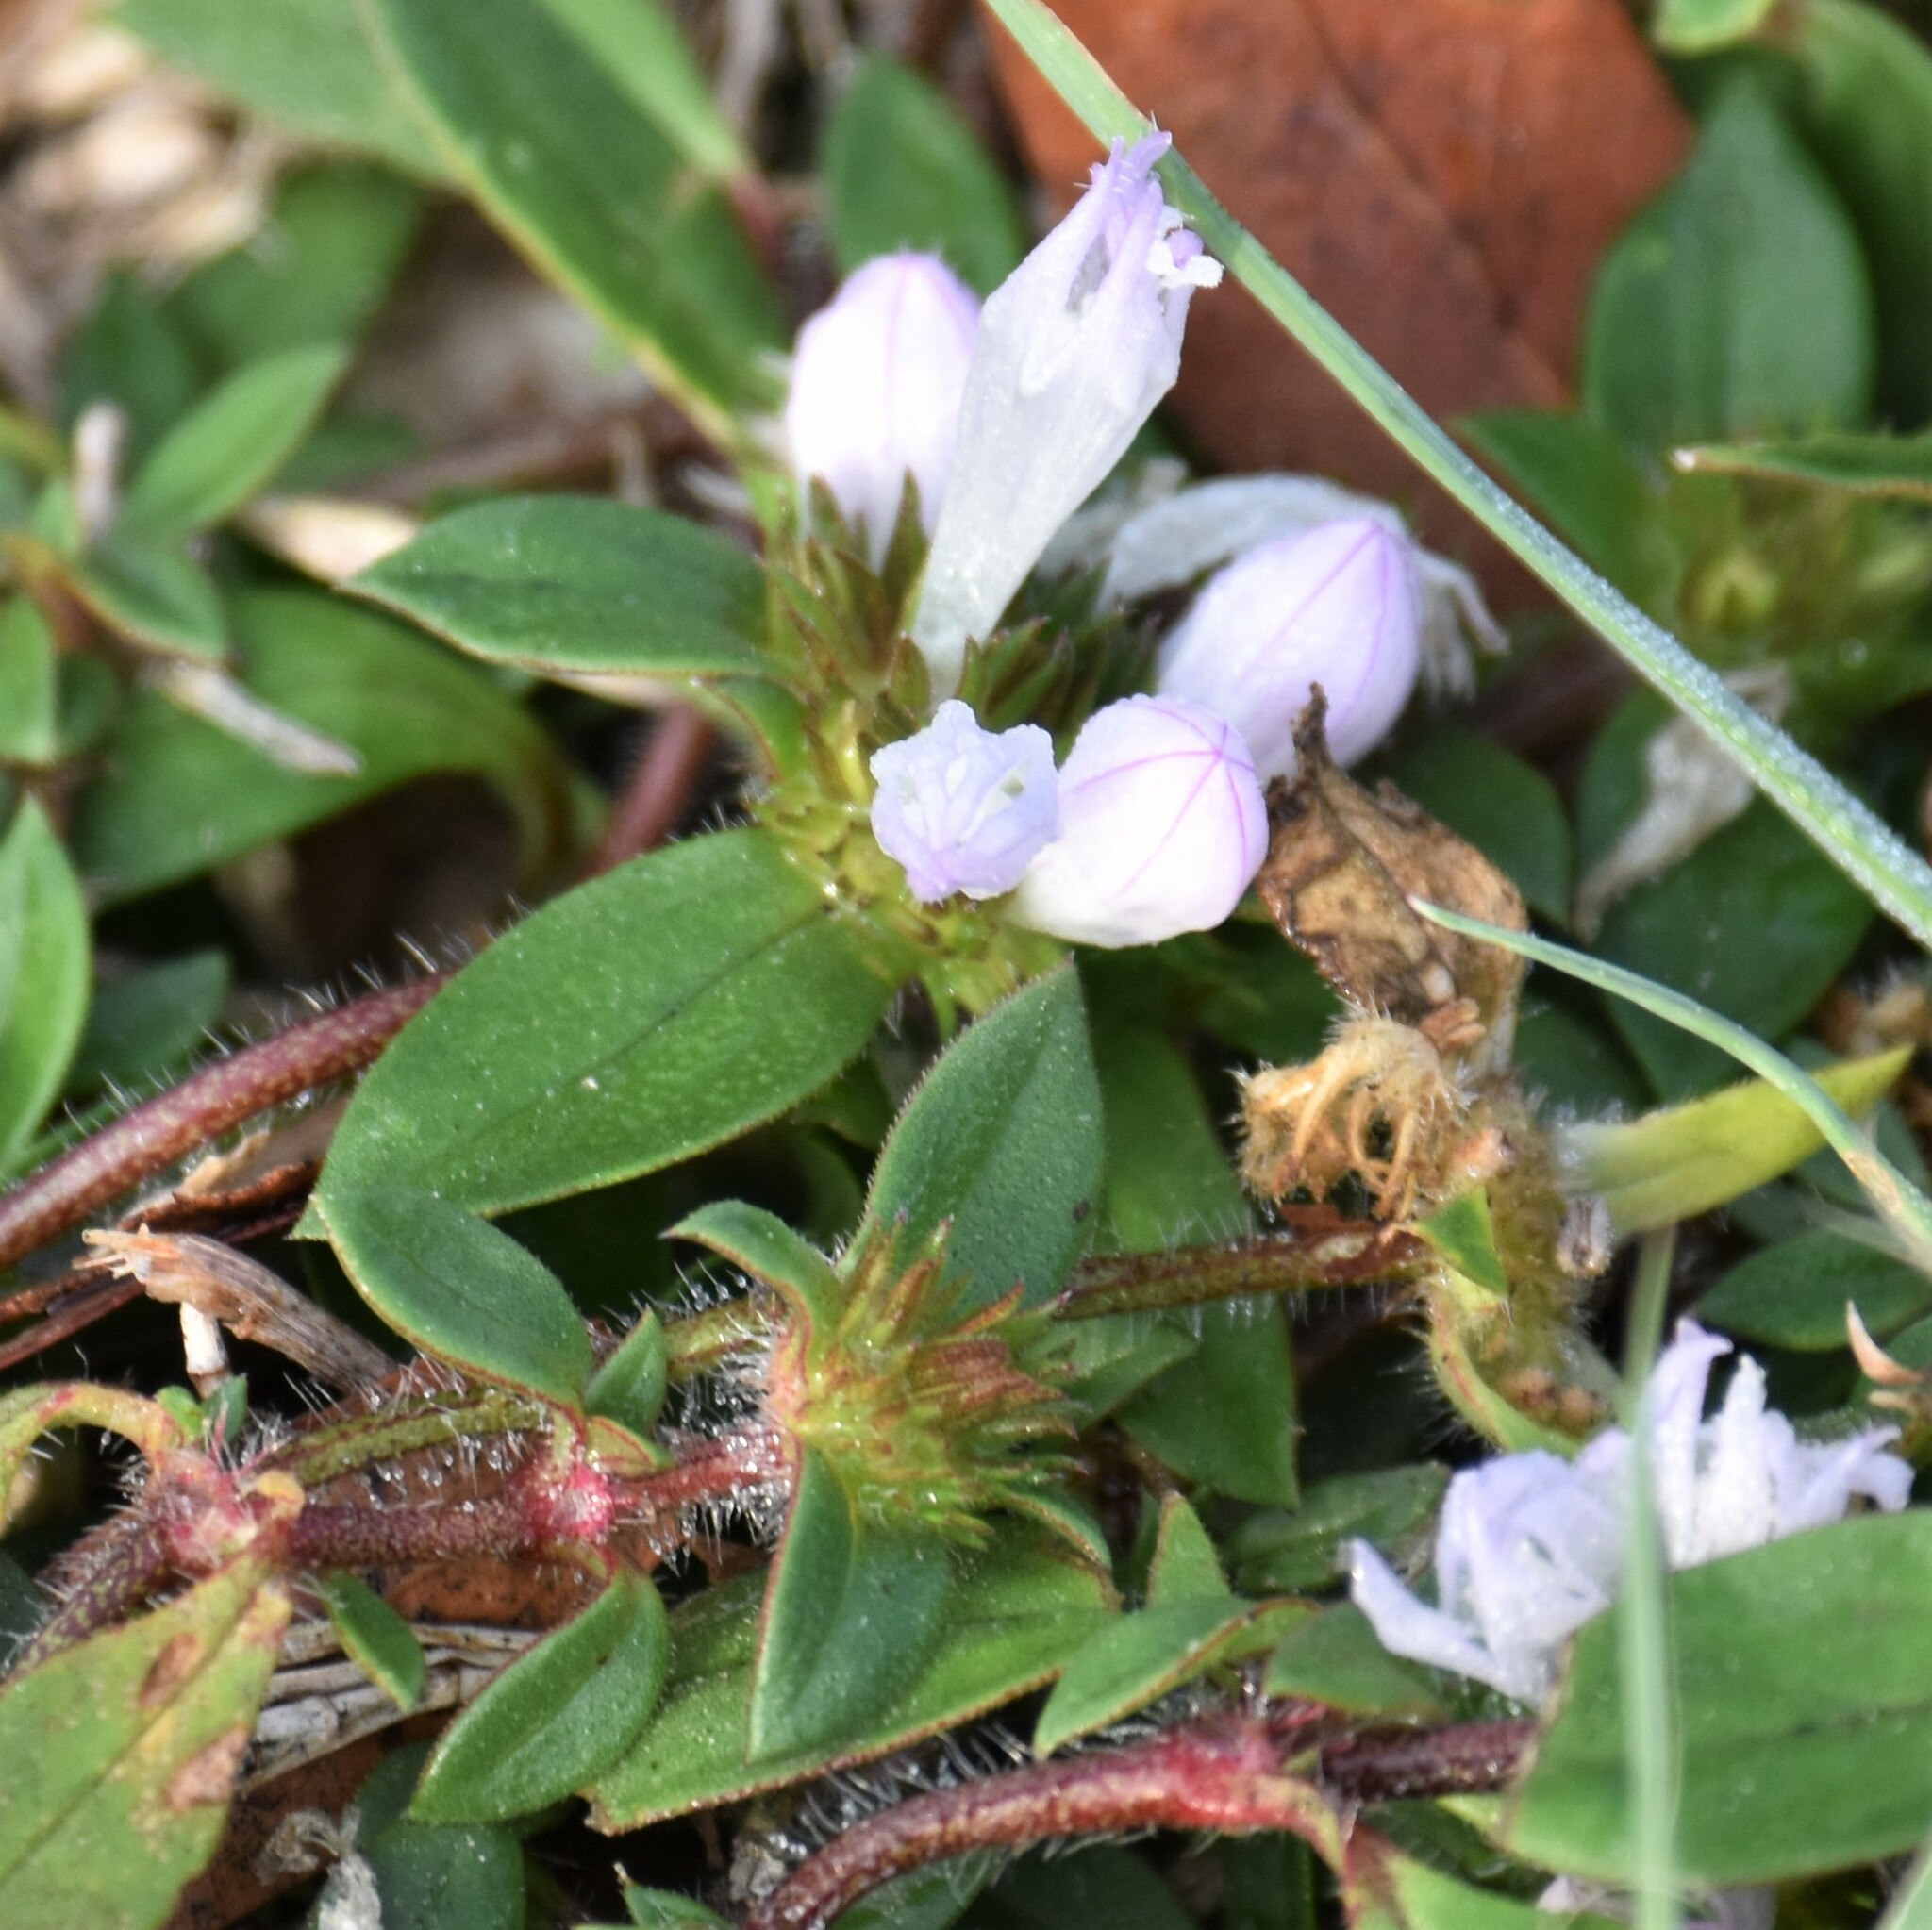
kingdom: Plantae
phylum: Tracheophyta
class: Magnoliopsida
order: Gentianales
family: Rubiaceae
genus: Richardia
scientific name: Richardia grandiflora
